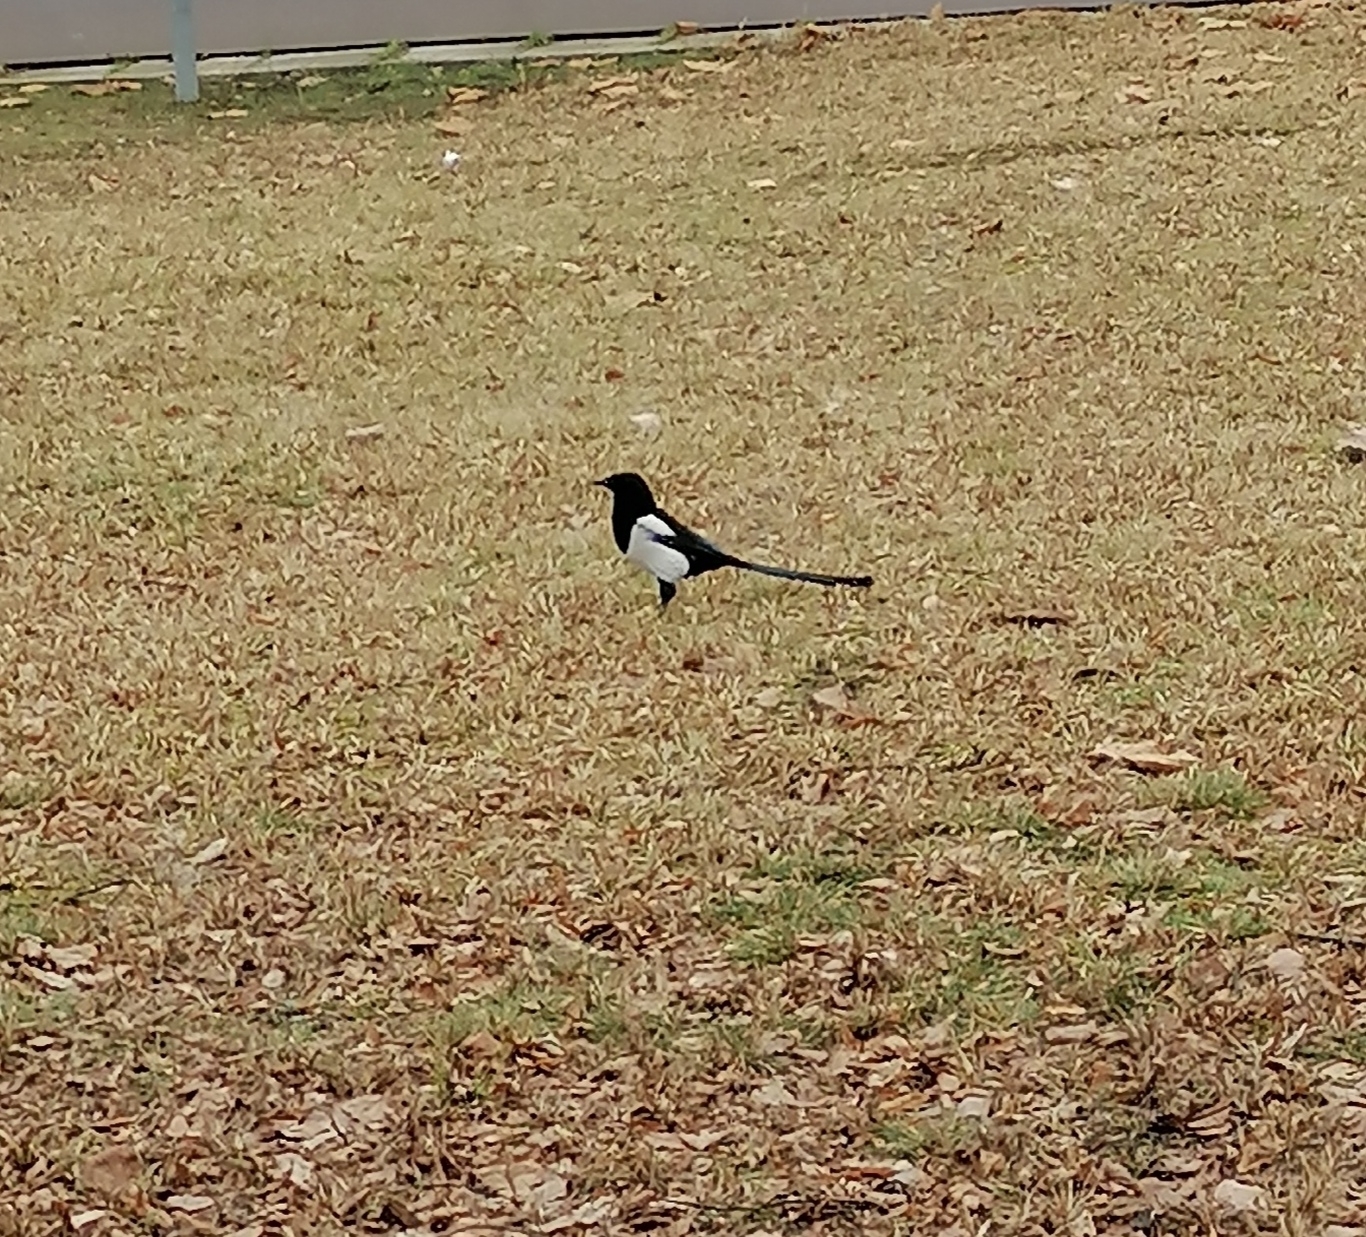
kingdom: Animalia
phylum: Chordata
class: Aves
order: Passeriformes
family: Corvidae
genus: Pica
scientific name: Pica pica
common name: Eurasian magpie
